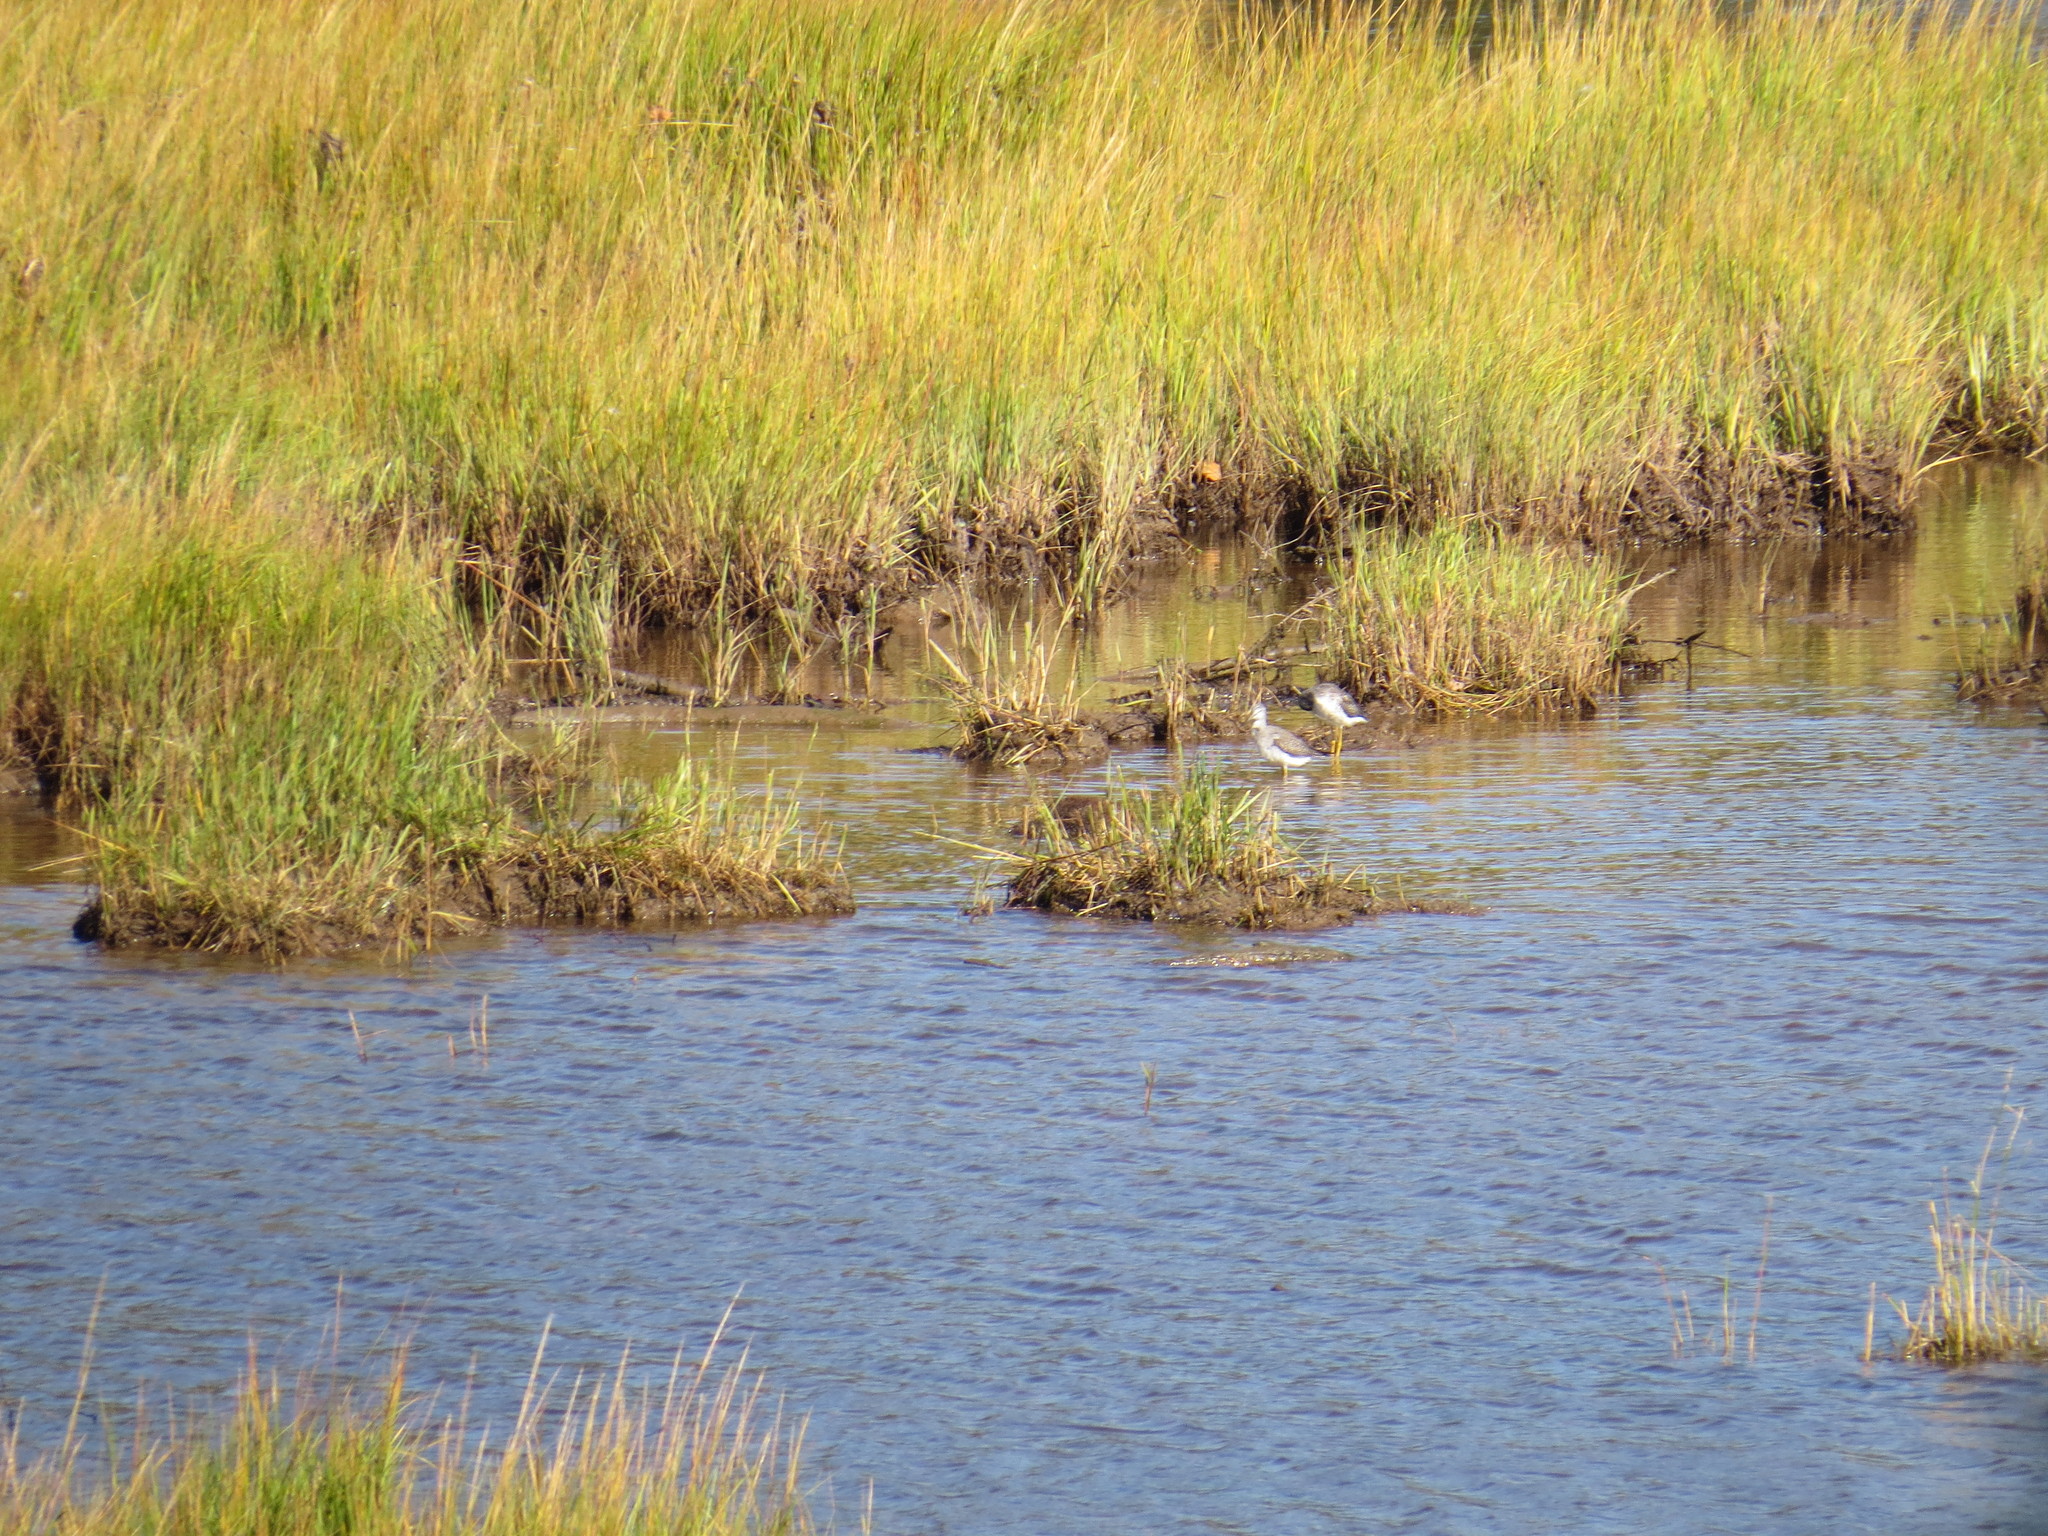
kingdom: Animalia
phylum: Chordata
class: Aves
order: Charadriiformes
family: Scolopacidae
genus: Tringa
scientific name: Tringa melanoleuca
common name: Greater yellowlegs
